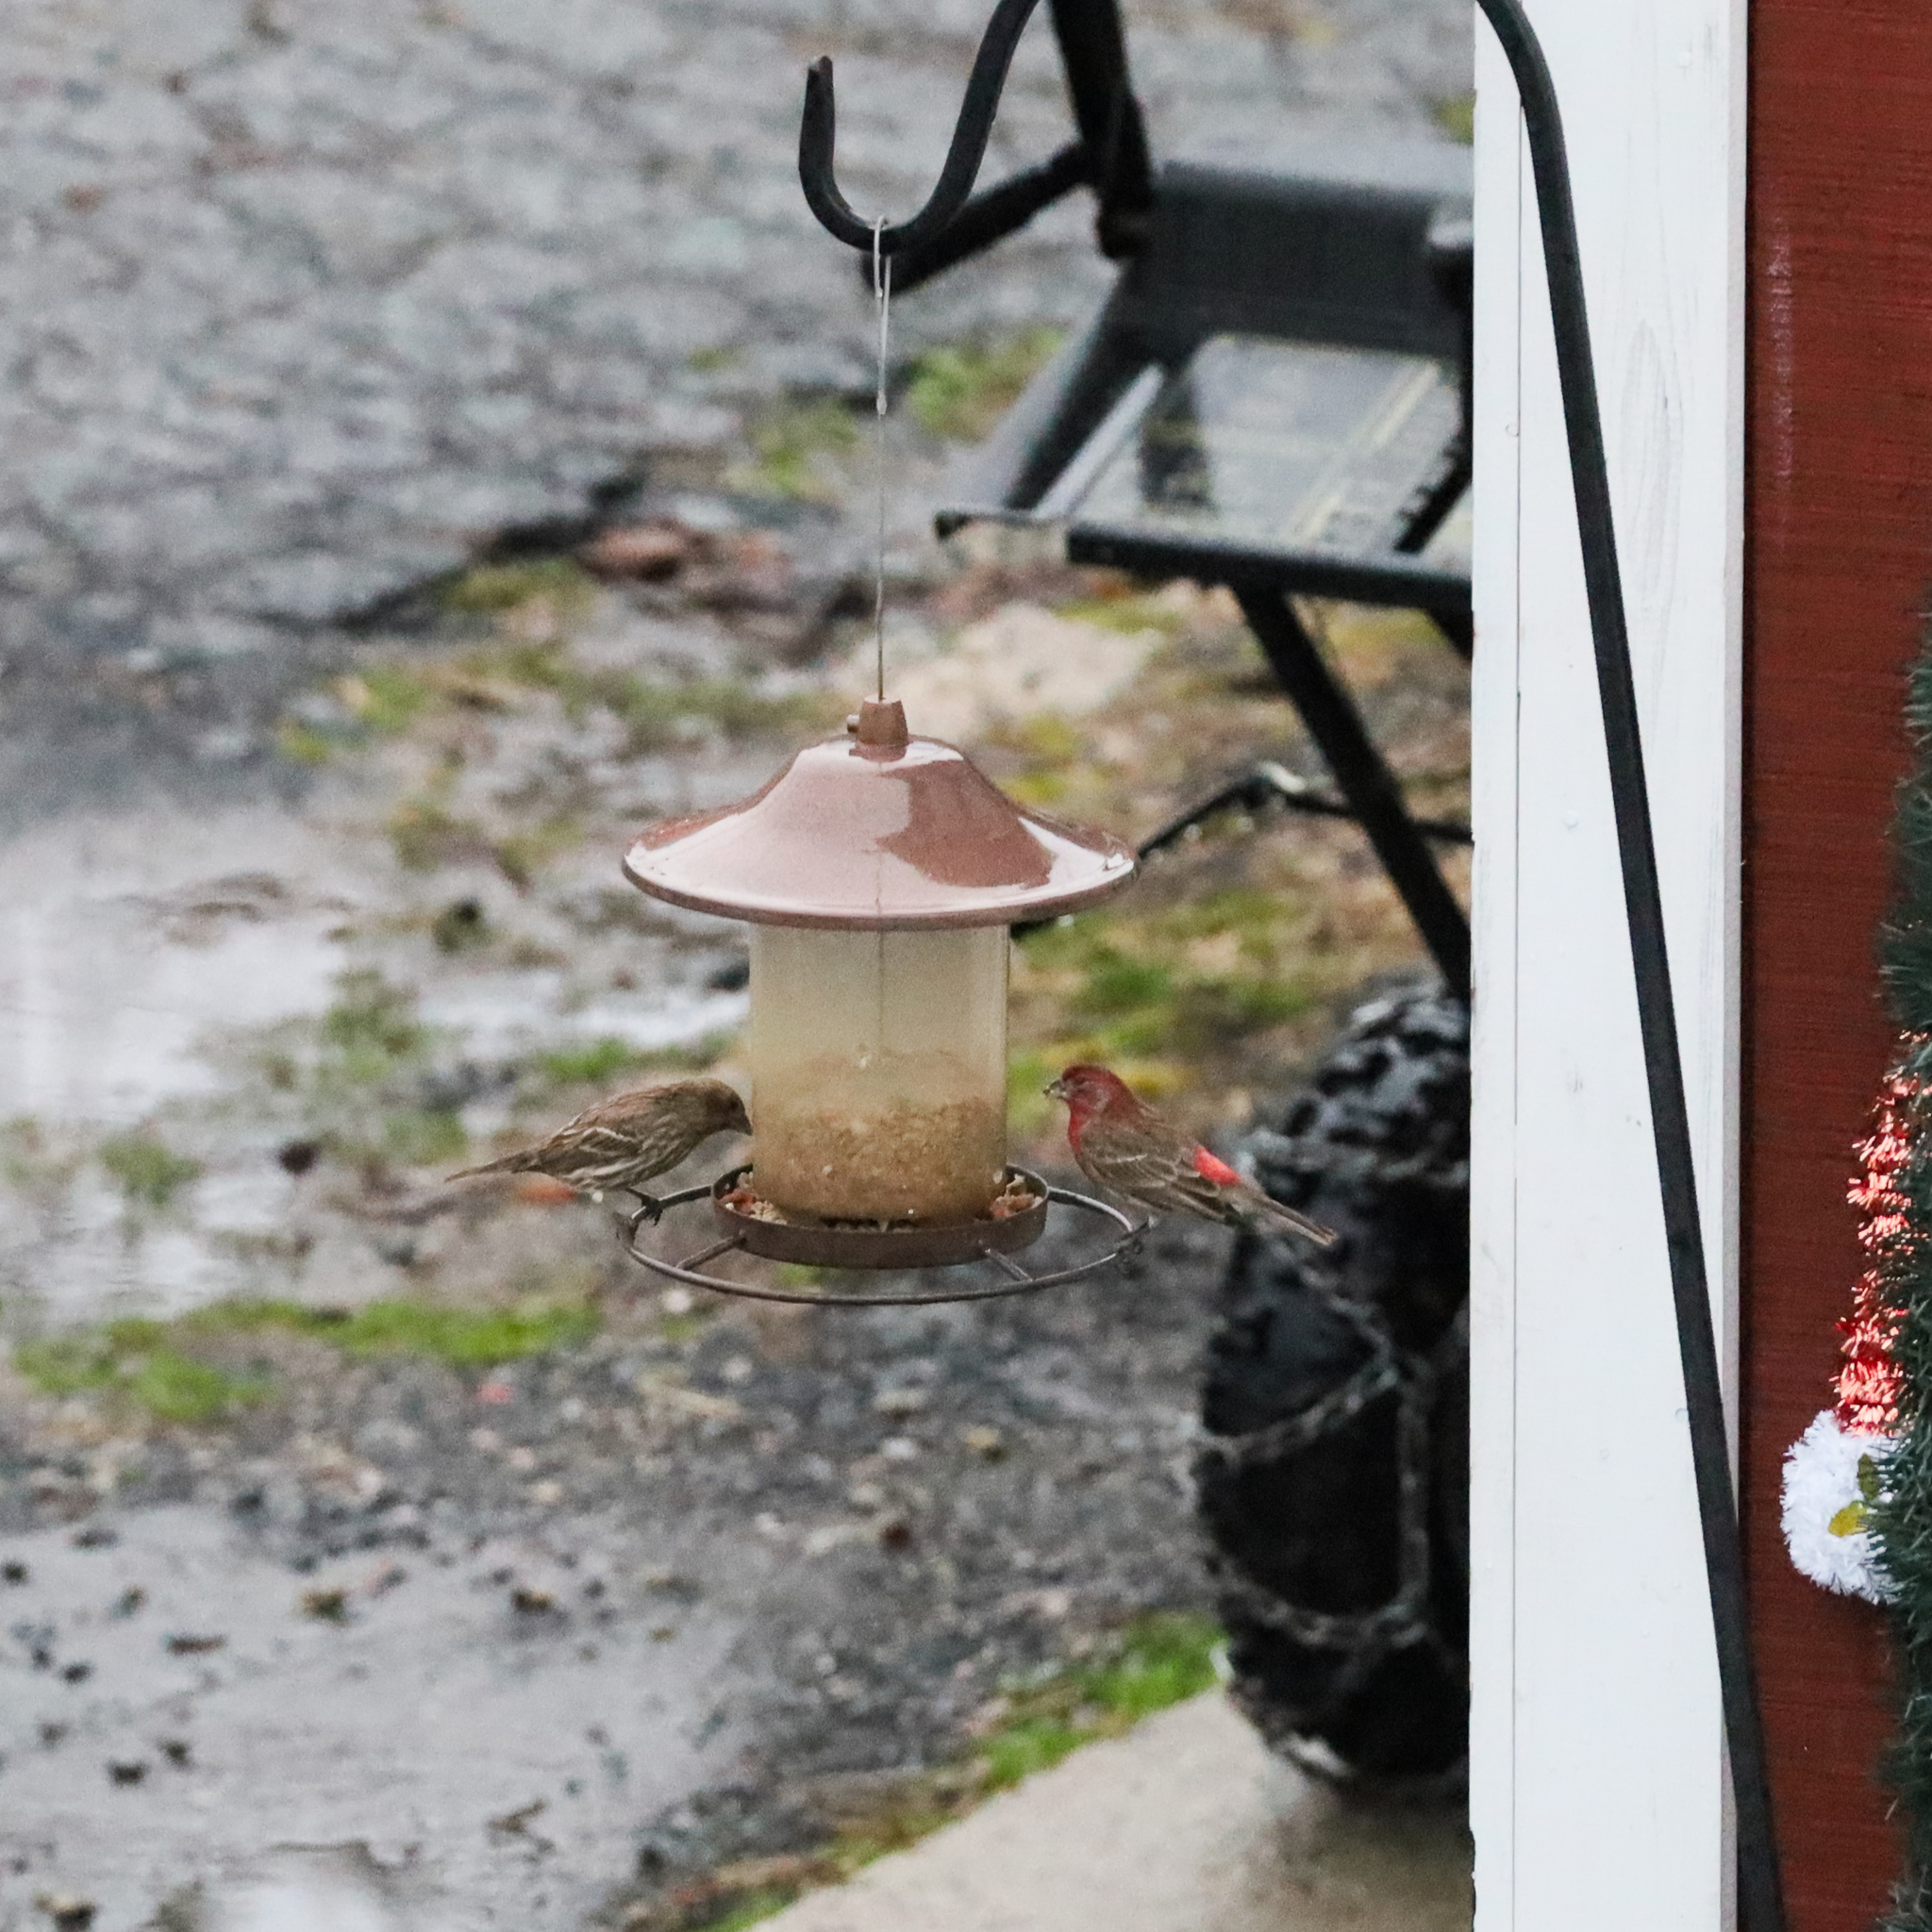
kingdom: Animalia
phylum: Chordata
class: Aves
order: Passeriformes
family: Fringillidae
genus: Haemorhous
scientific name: Haemorhous mexicanus
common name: House finch
